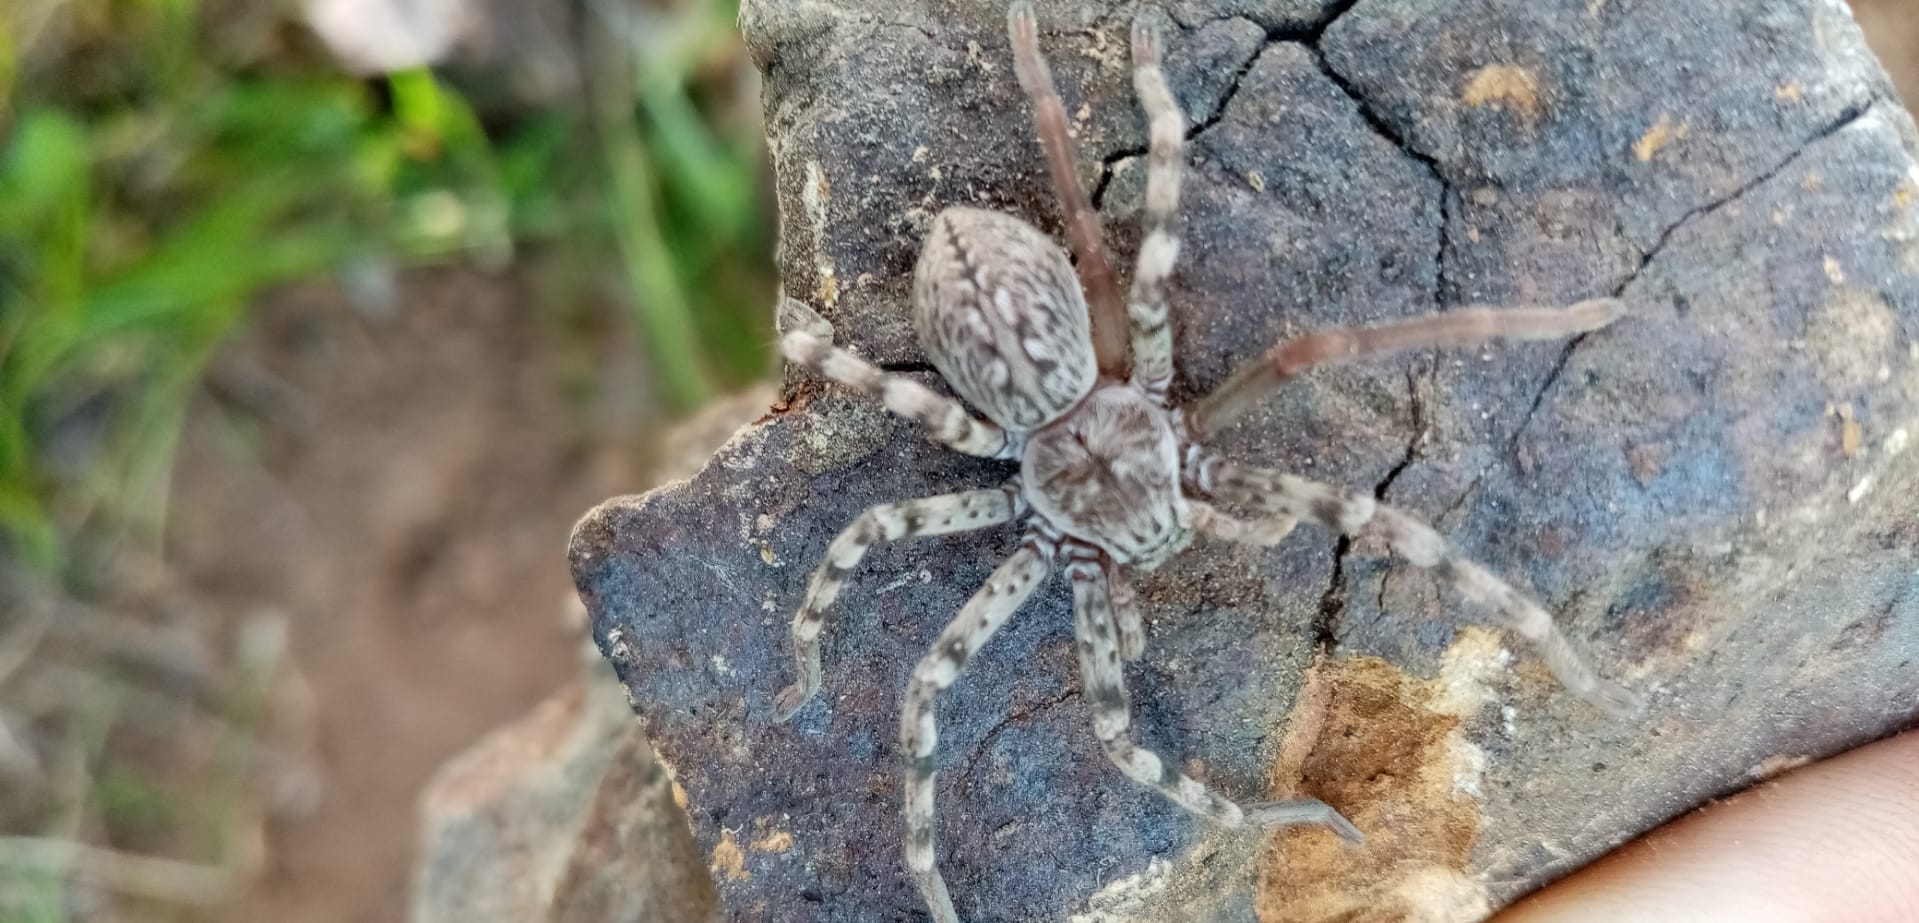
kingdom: Animalia
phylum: Arthropoda
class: Arachnida
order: Araneae
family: Sparassidae
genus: Eusparassus
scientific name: Eusparassus dufouri
